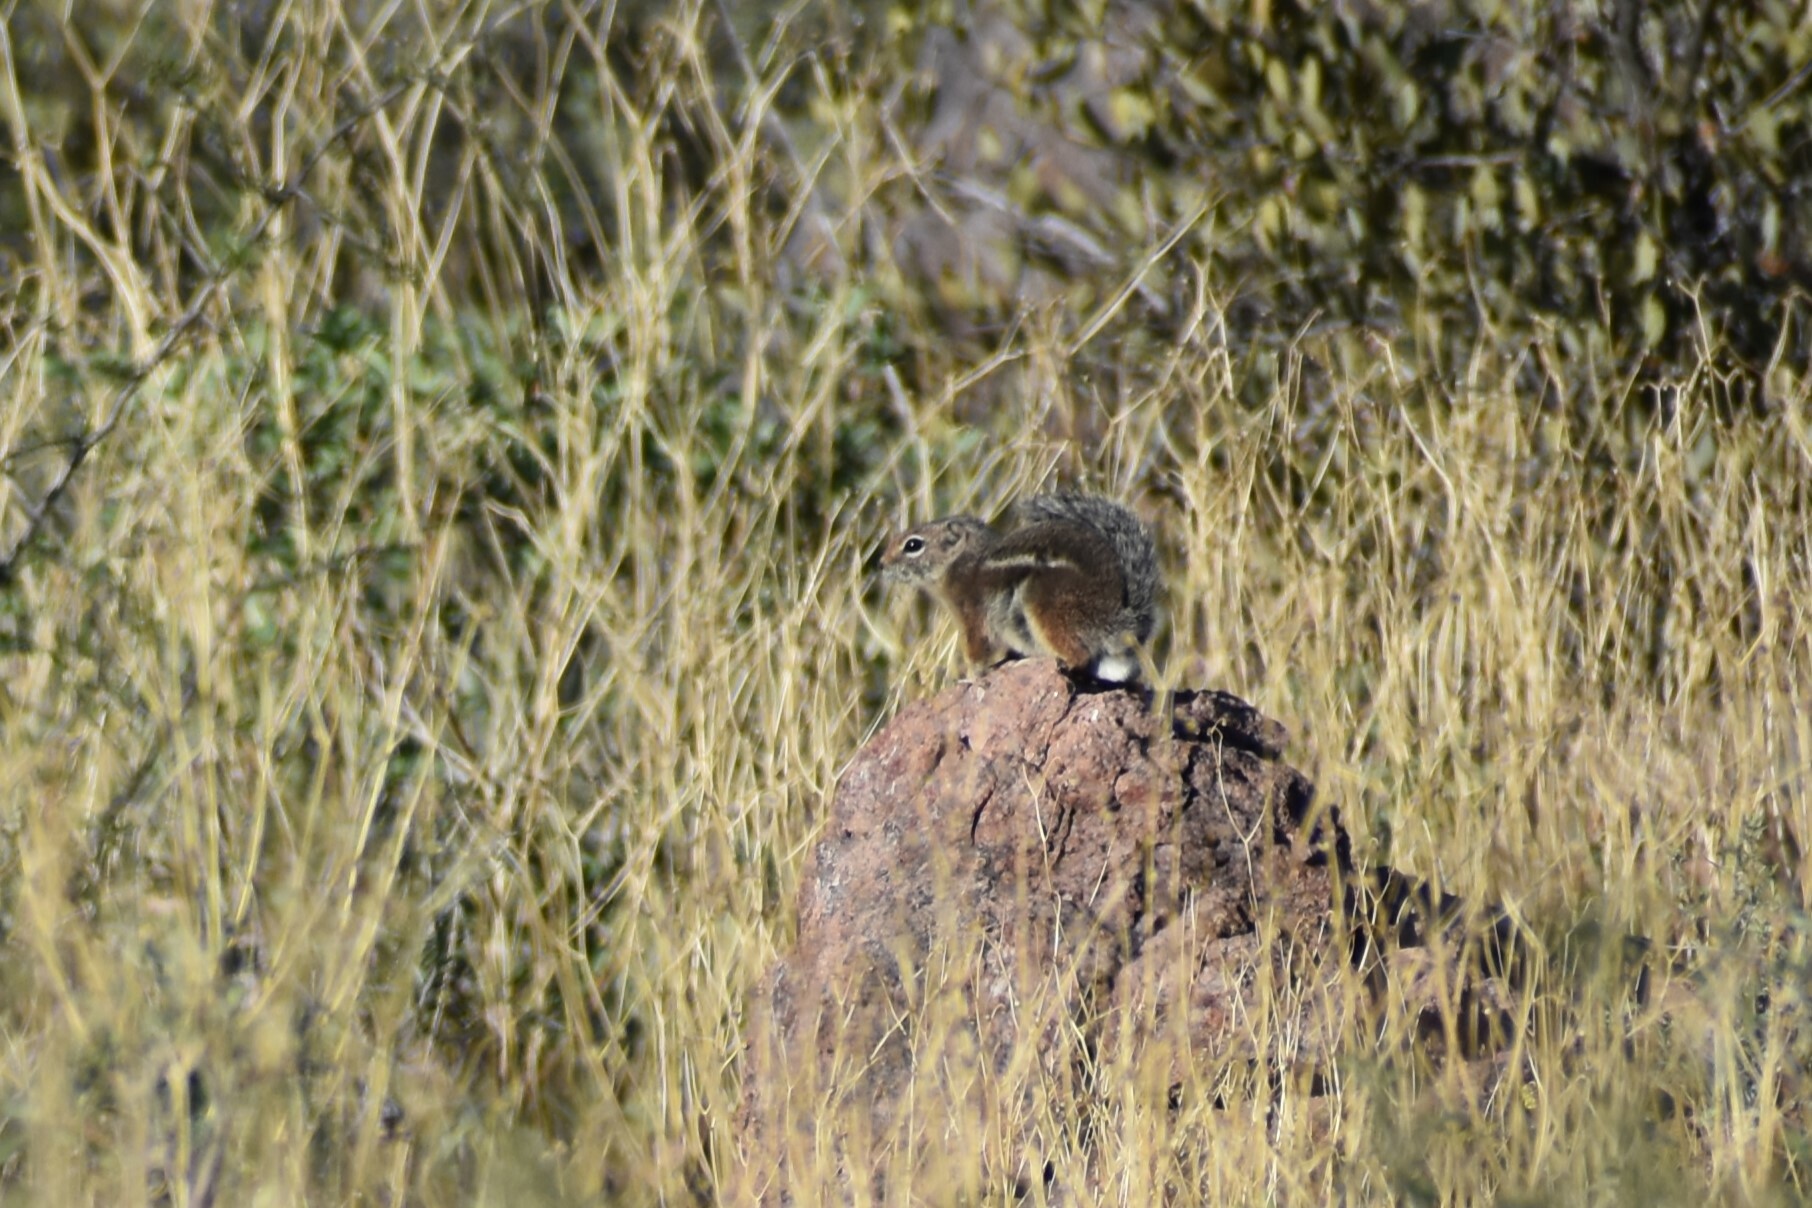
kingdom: Animalia
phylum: Chordata
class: Mammalia
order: Rodentia
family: Sciuridae
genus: Ammospermophilus
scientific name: Ammospermophilus harrisii
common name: Harris's antelope squirrel
